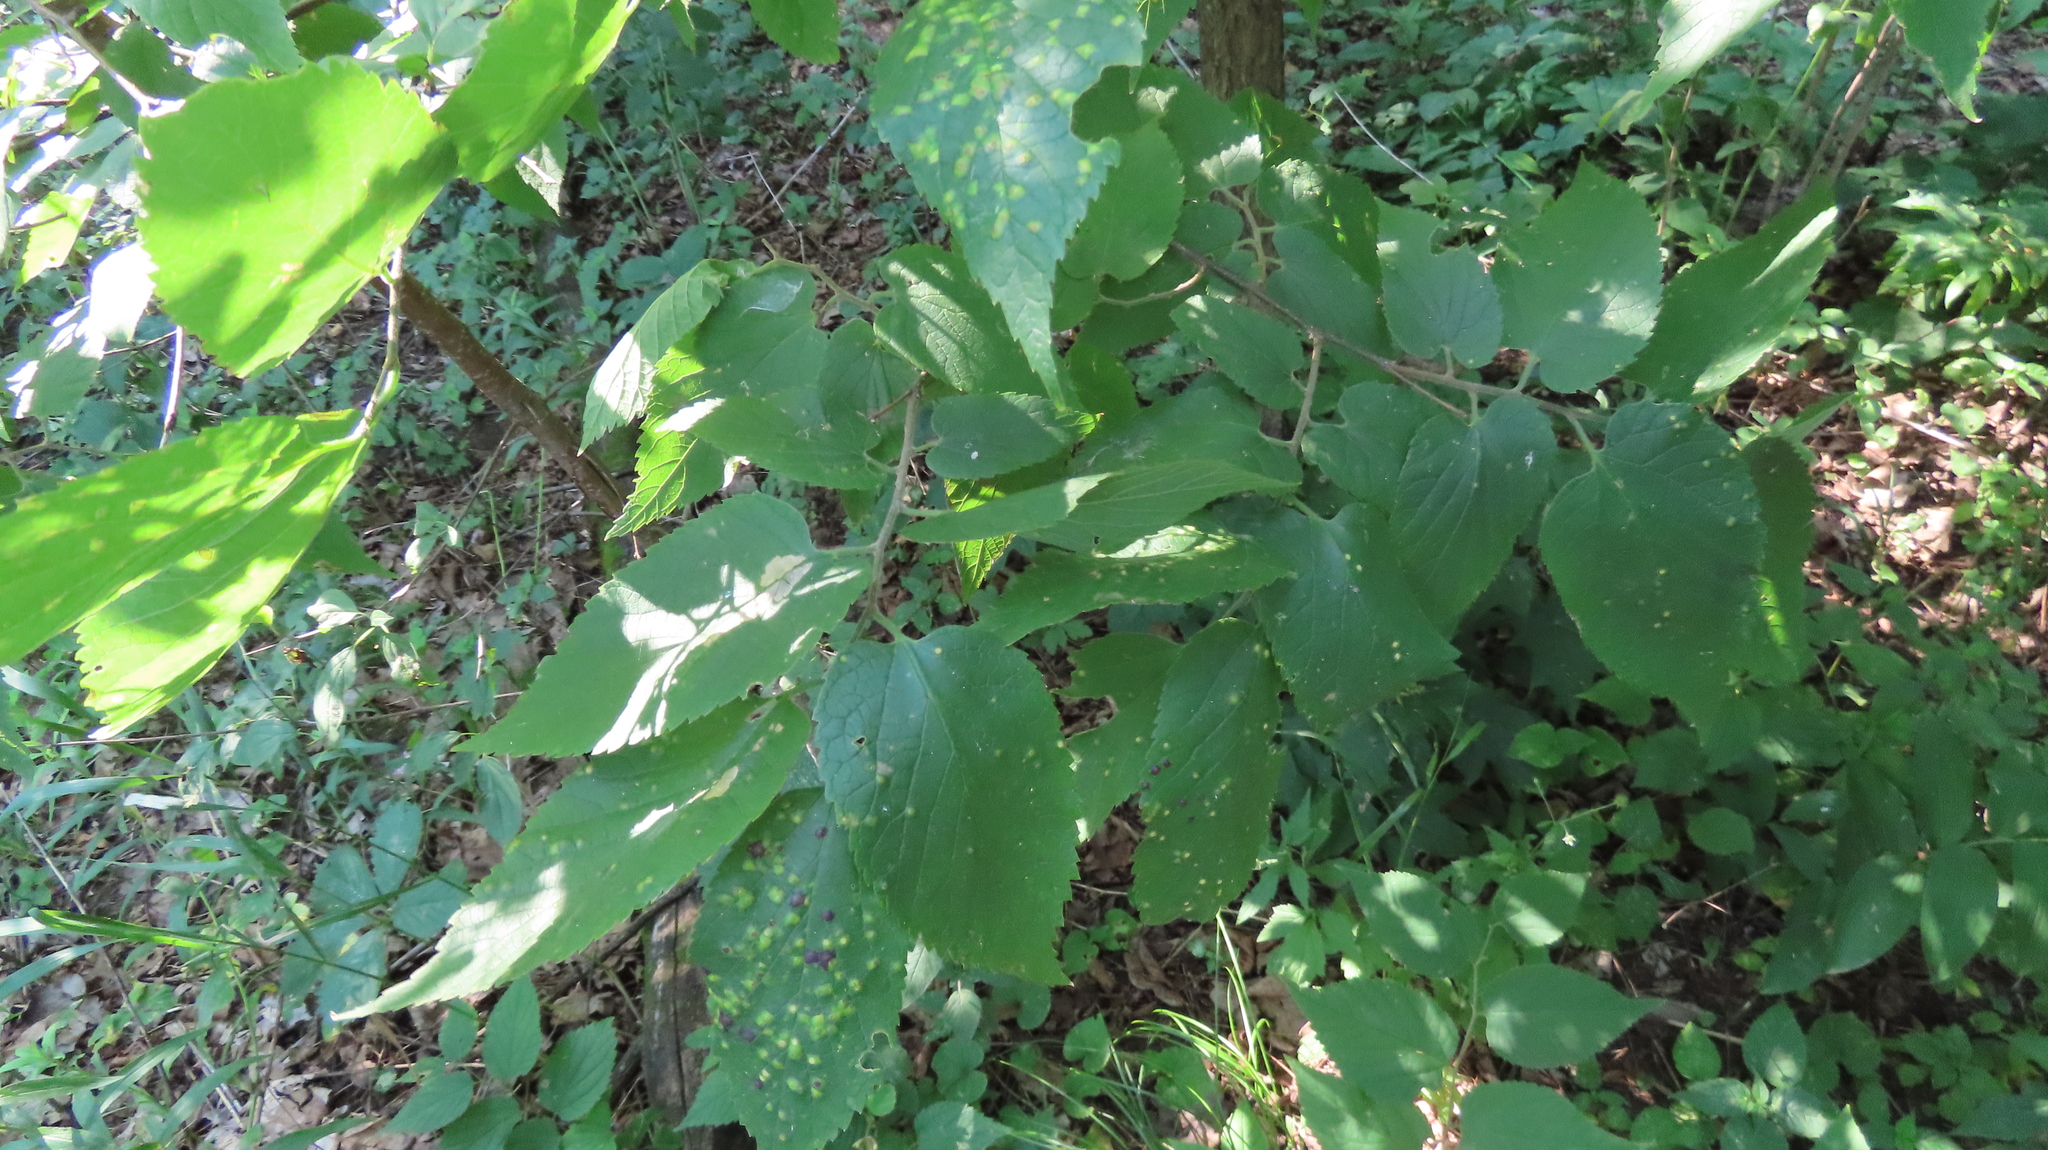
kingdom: Animalia
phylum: Arthropoda
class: Insecta
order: Hemiptera
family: Aphalaridae
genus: Pachypsylla
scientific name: Pachypsylla celtidisvesicula
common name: Hackberry blister gall psyllid
